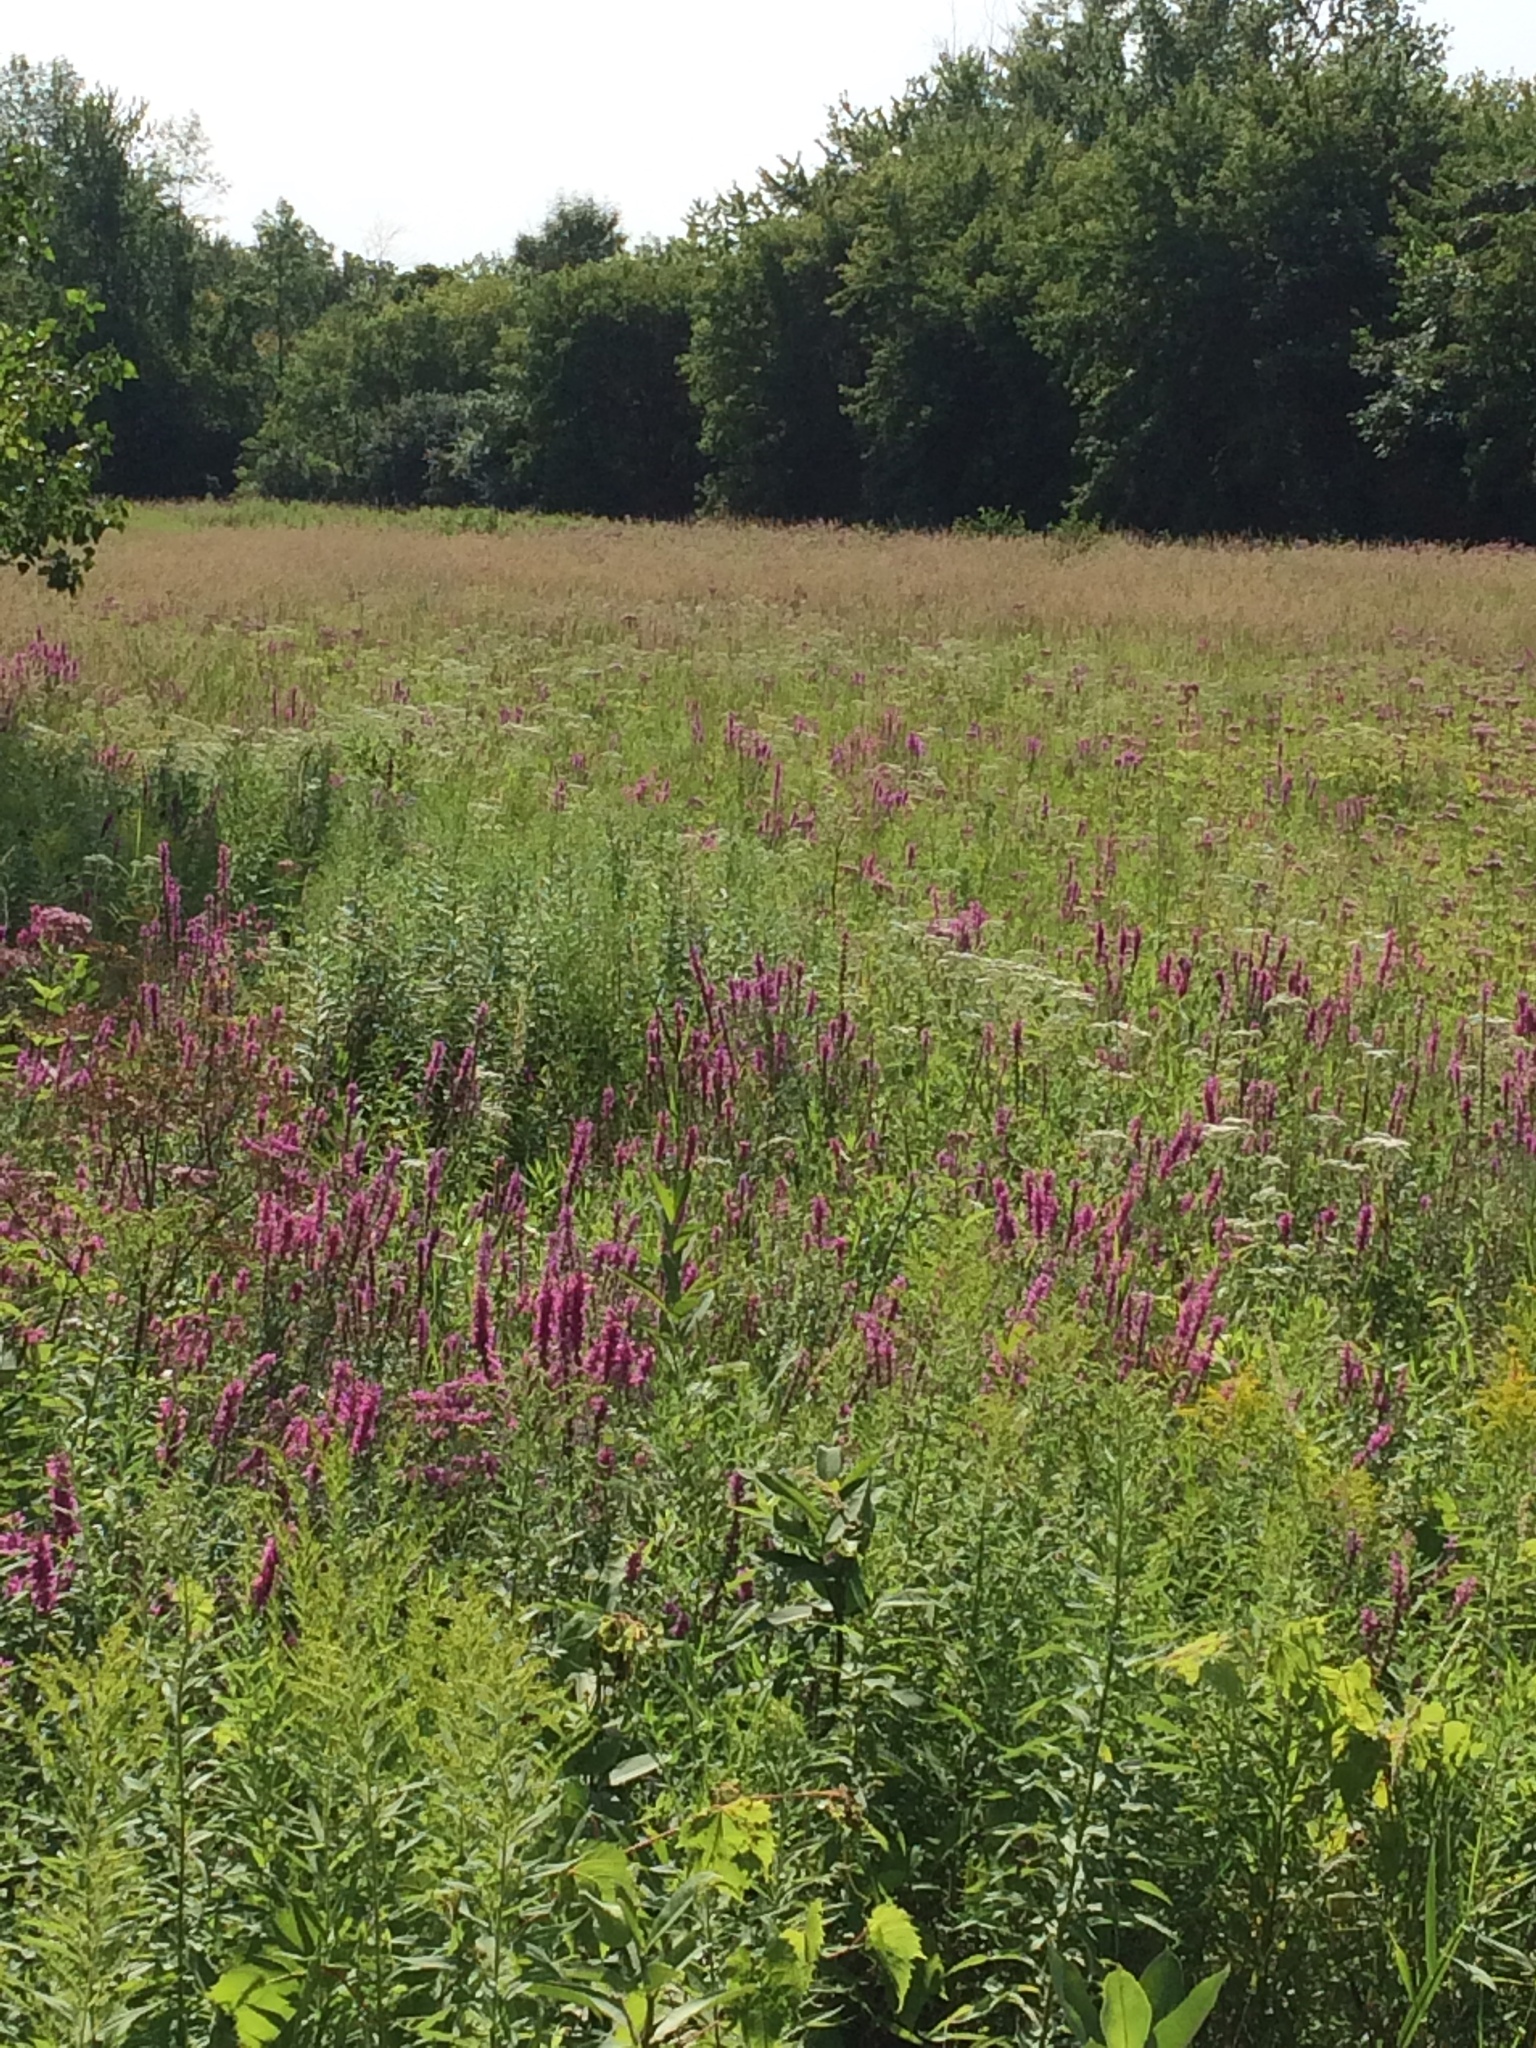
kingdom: Plantae
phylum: Tracheophyta
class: Magnoliopsida
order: Myrtales
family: Lythraceae
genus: Lythrum
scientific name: Lythrum salicaria
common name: Purple loosestrife
